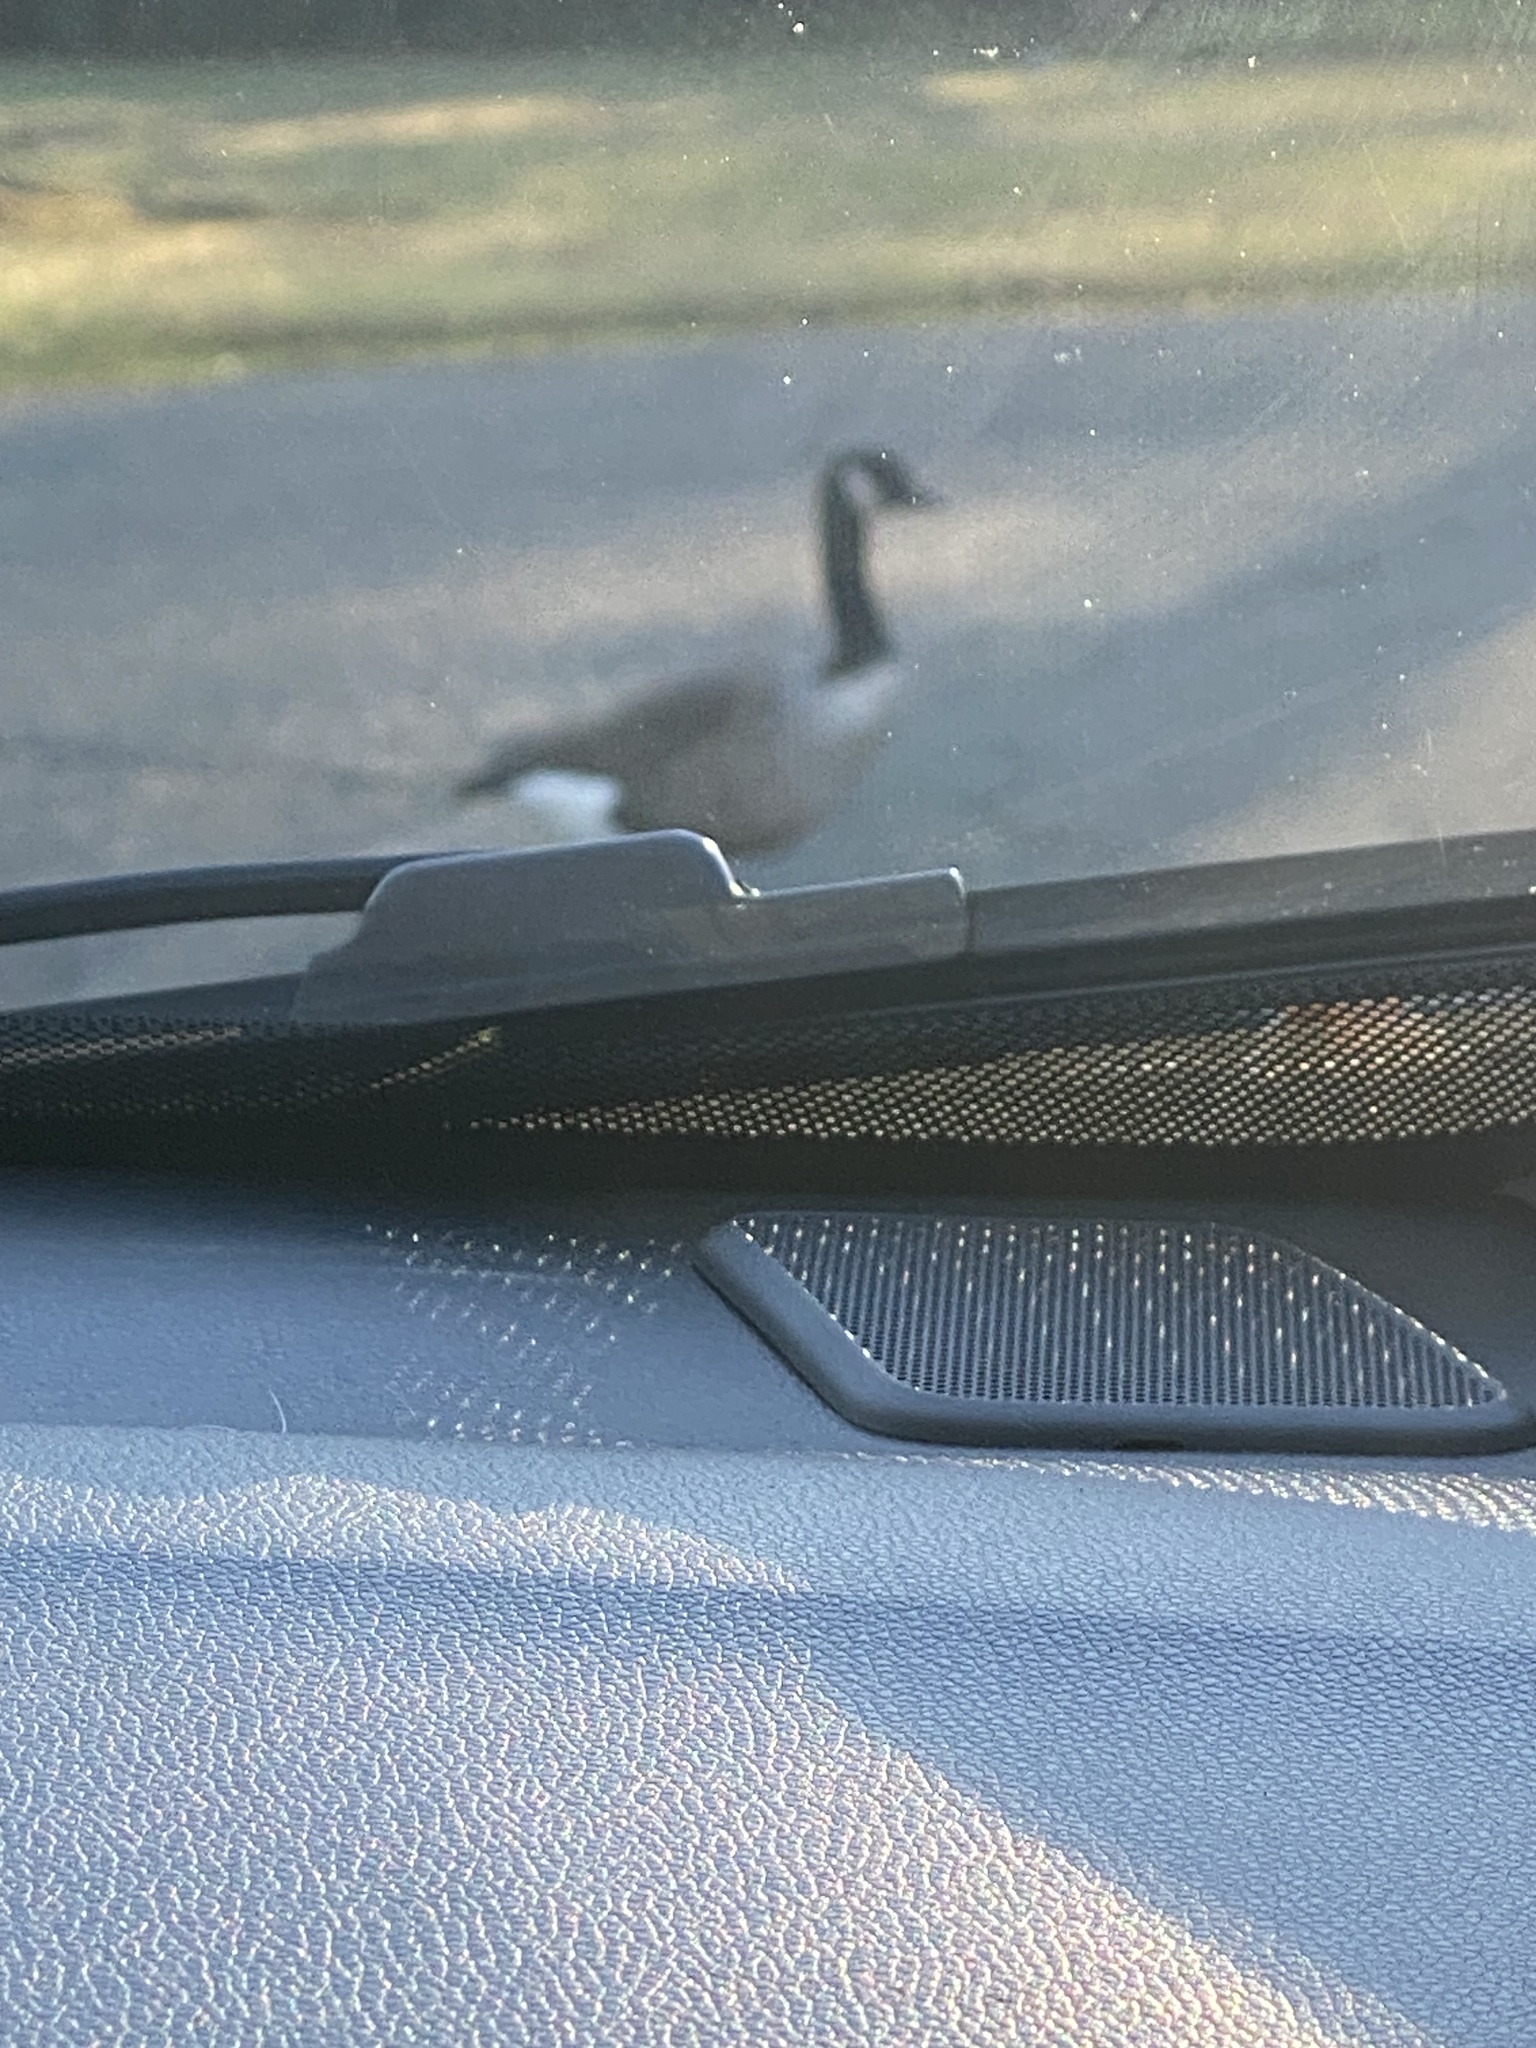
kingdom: Animalia
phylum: Chordata
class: Aves
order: Anseriformes
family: Anatidae
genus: Branta
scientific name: Branta canadensis
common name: Canada goose
